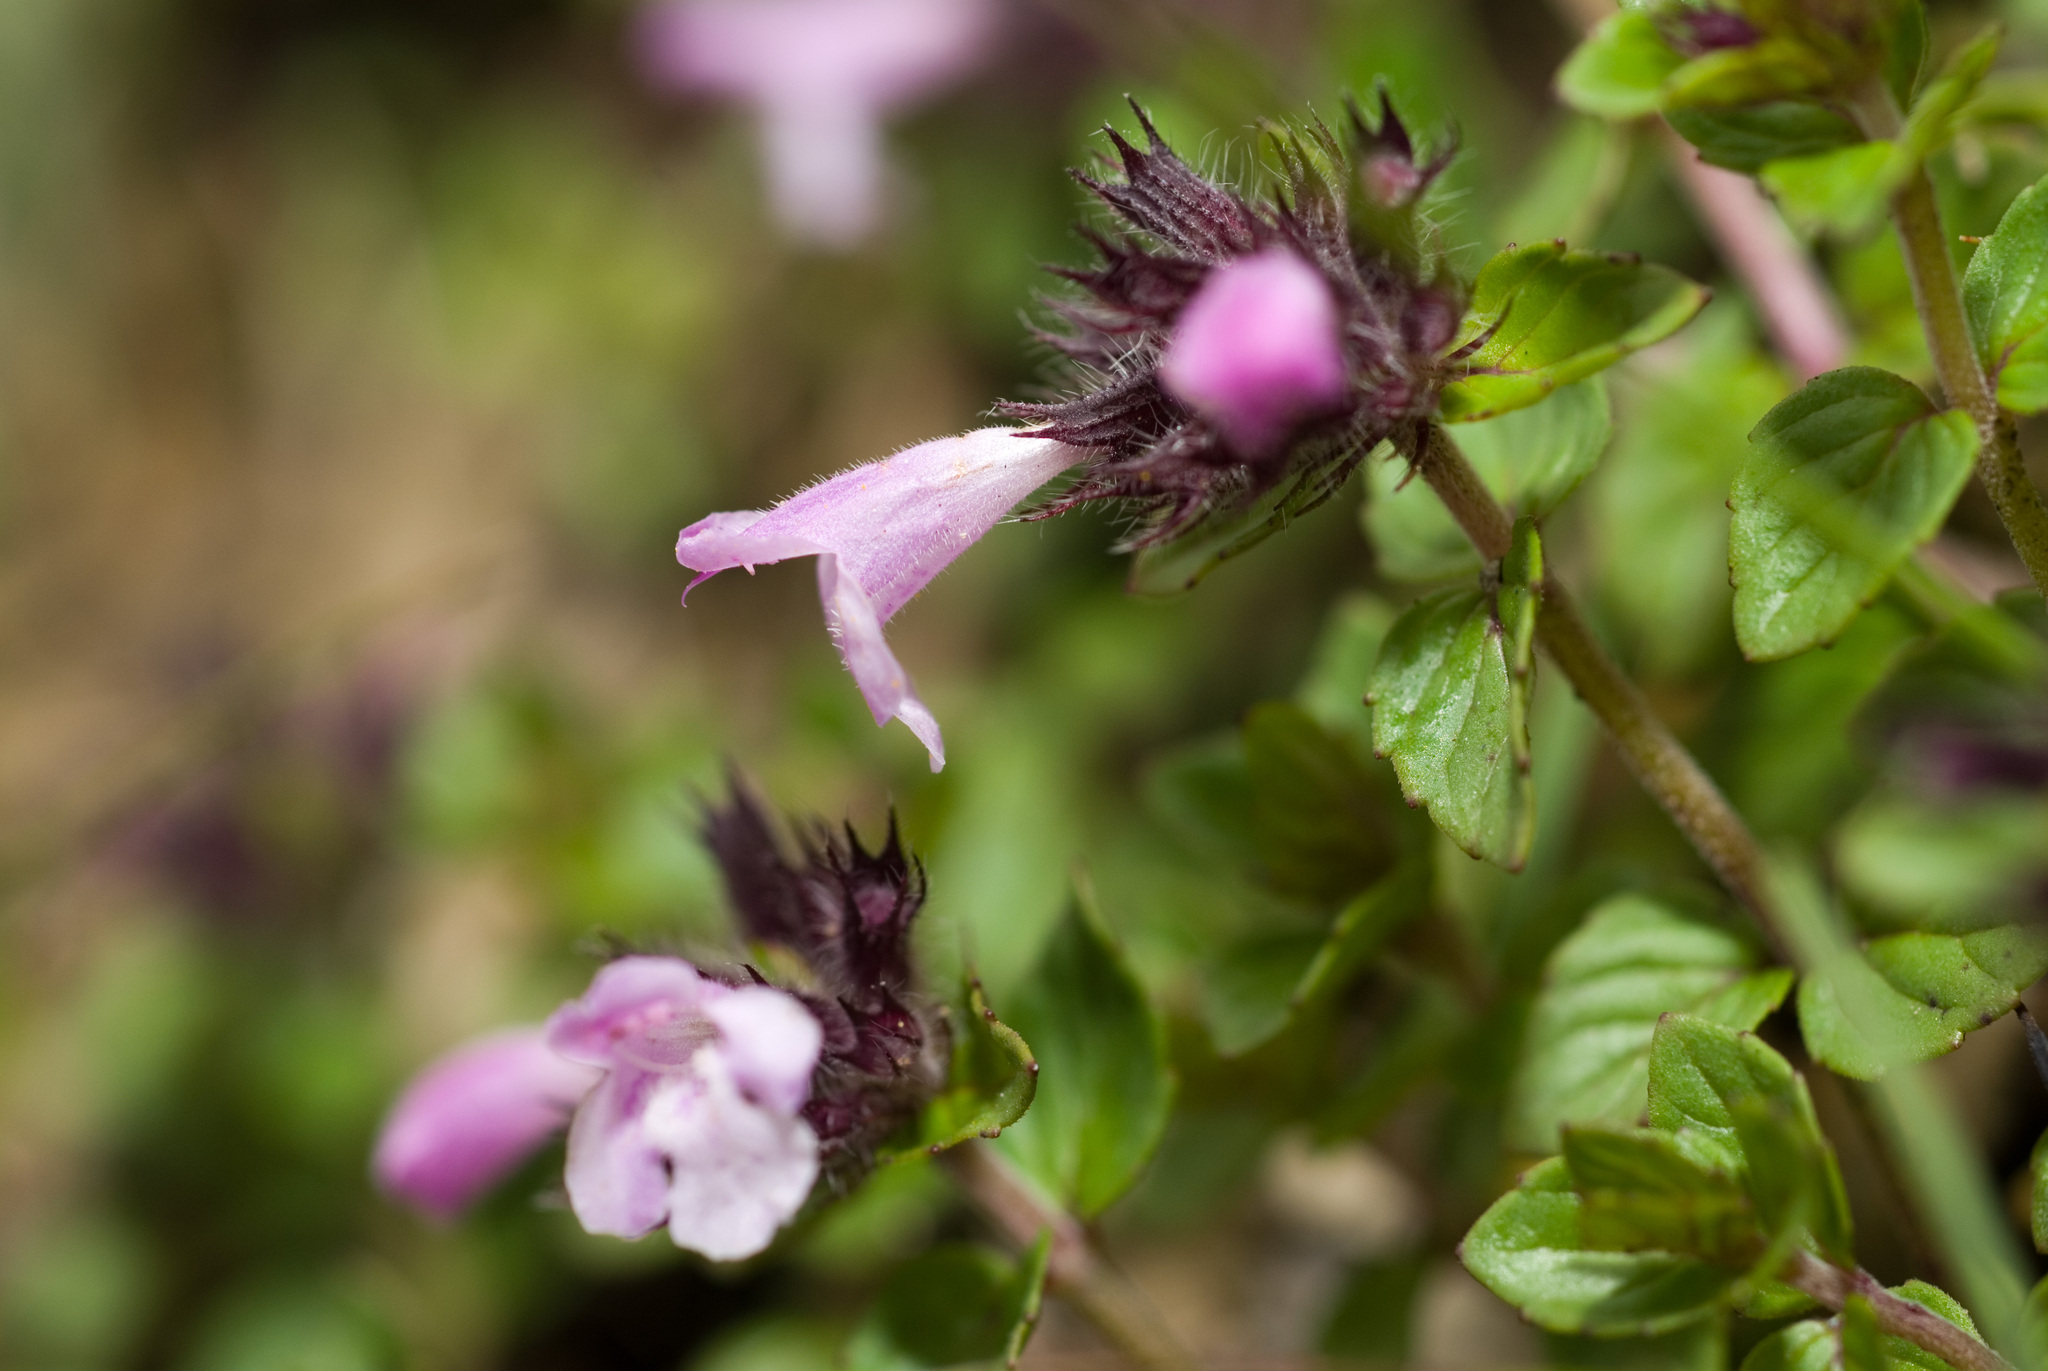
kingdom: Plantae
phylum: Tracheophyta
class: Magnoliopsida
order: Lamiales
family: Lamiaceae
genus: Clinopodium
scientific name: Clinopodium laxiflorum
